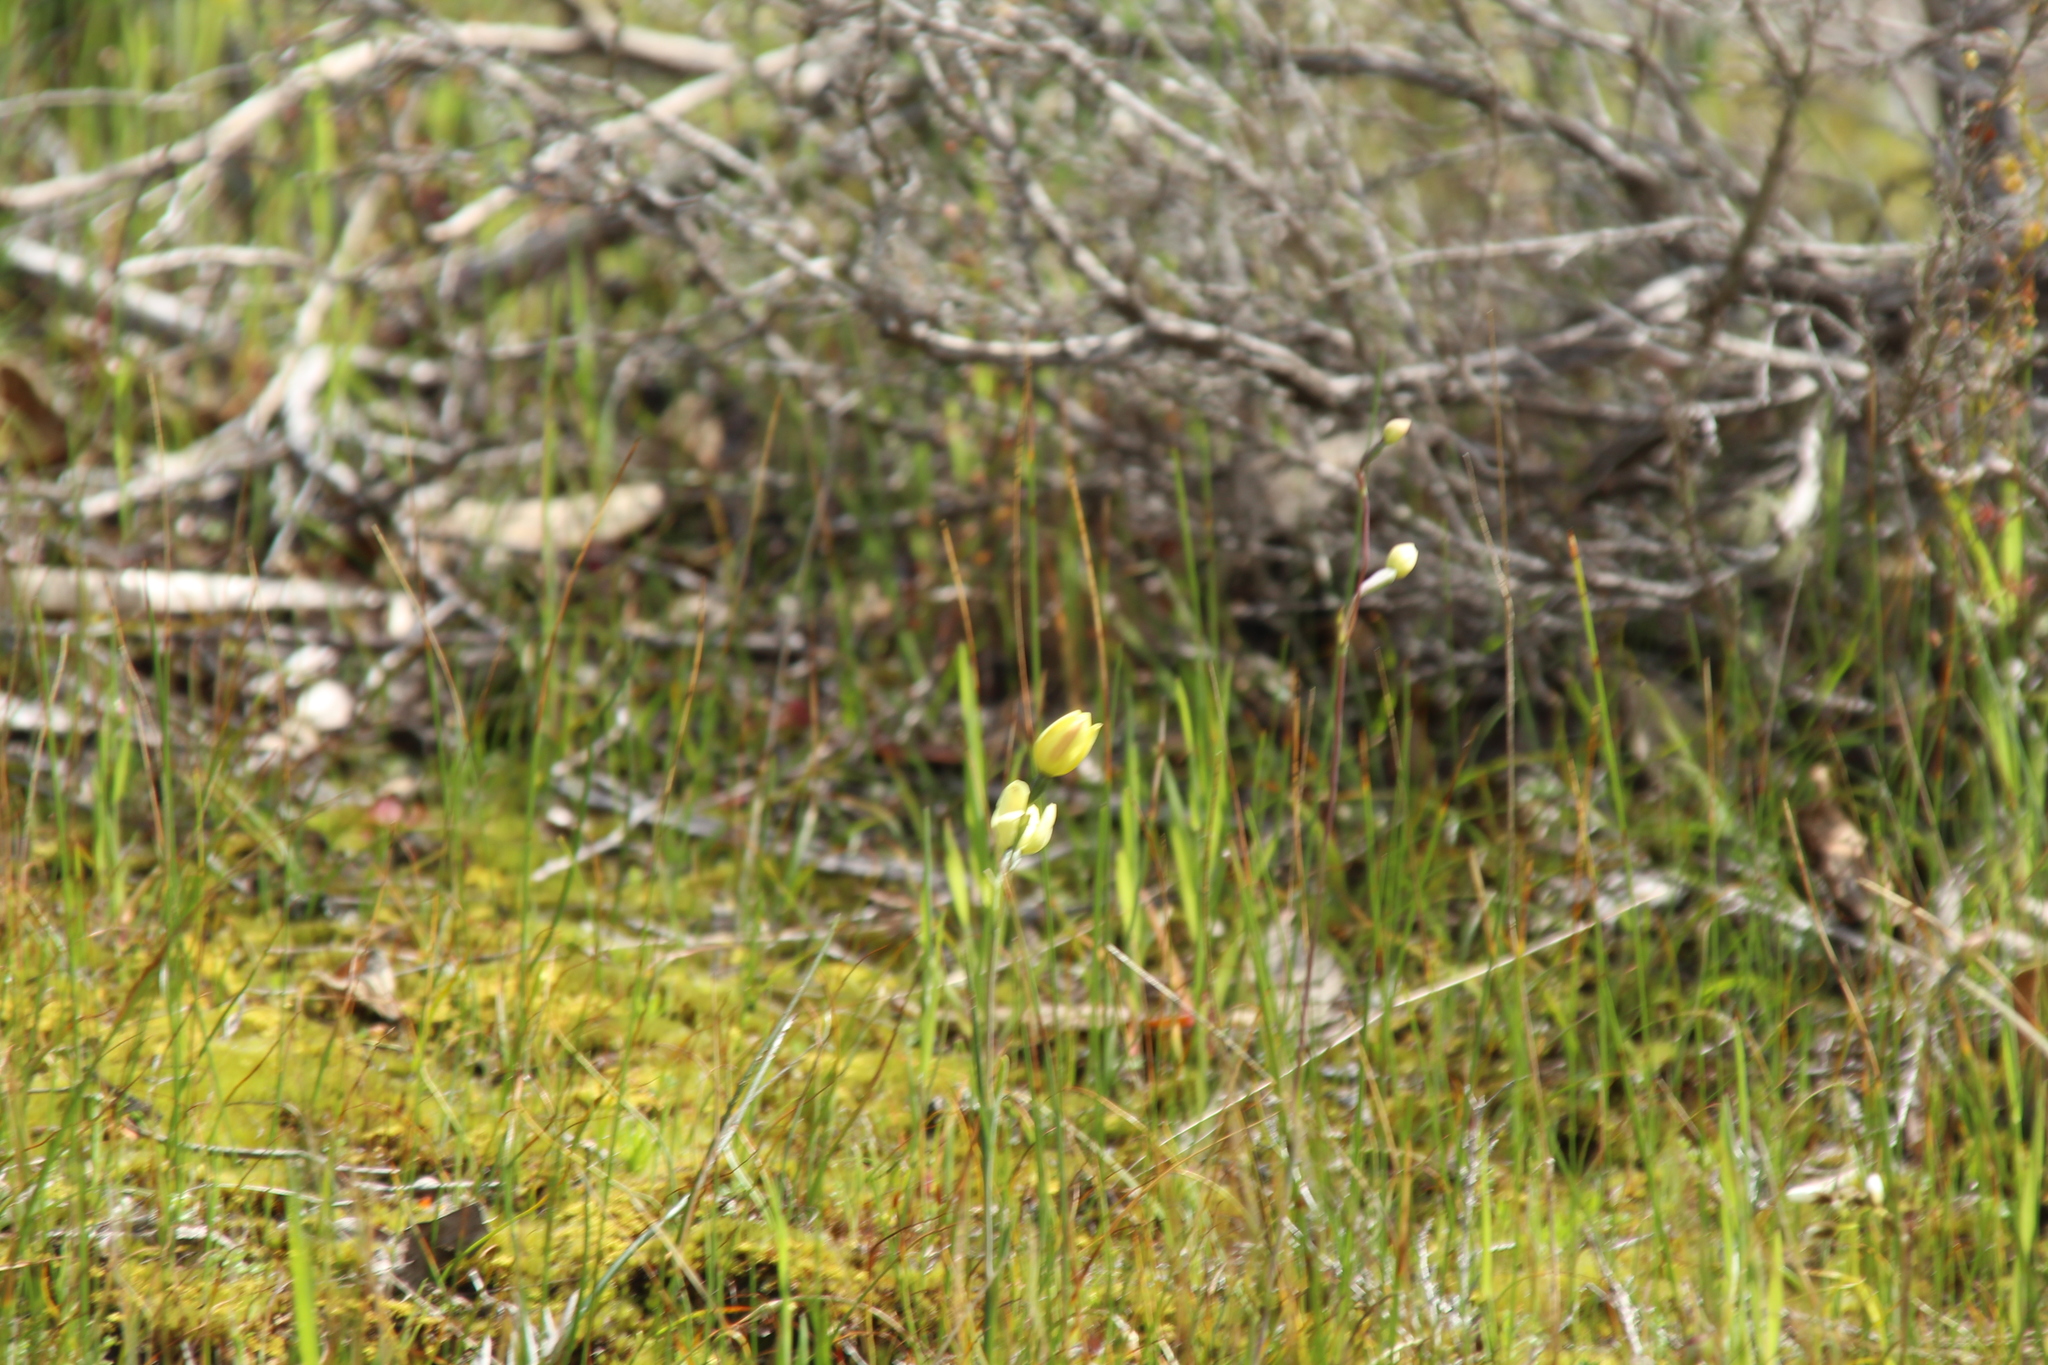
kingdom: Plantae
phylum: Tracheophyta
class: Liliopsida
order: Asparagales
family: Orchidaceae
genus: Thelymitra
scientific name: Thelymitra antennifera
